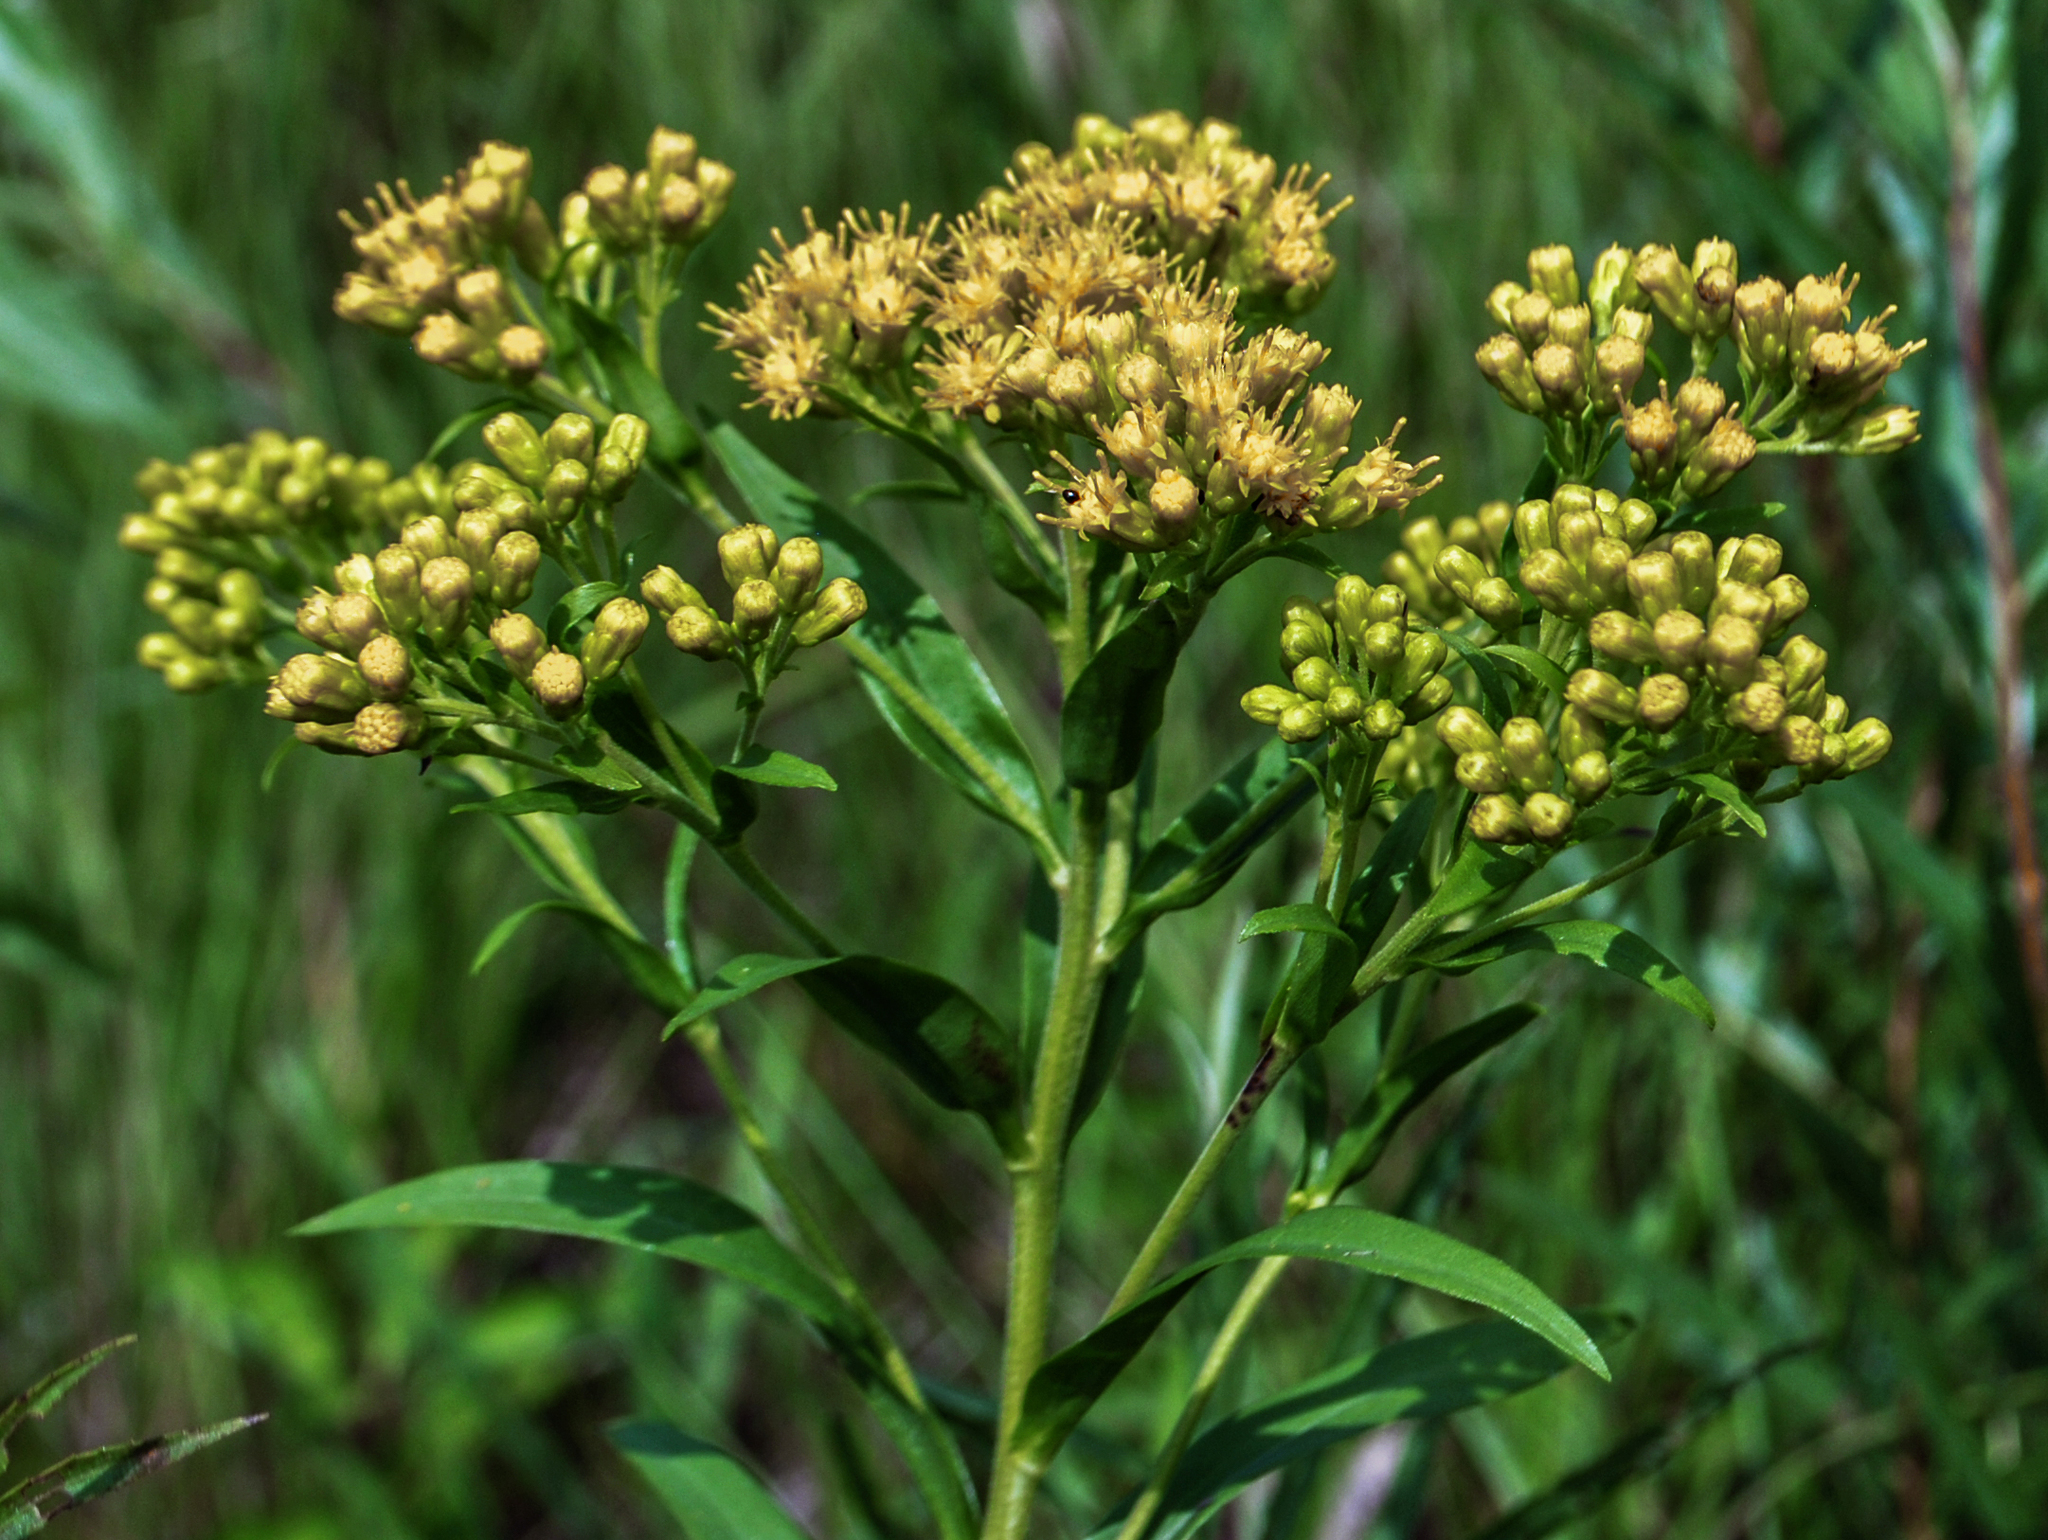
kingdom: Plantae
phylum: Tracheophyta
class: Magnoliopsida
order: Asterales
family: Asteraceae
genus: Solidago
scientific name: Solidago riddellii
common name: Riddell's goldenrod
